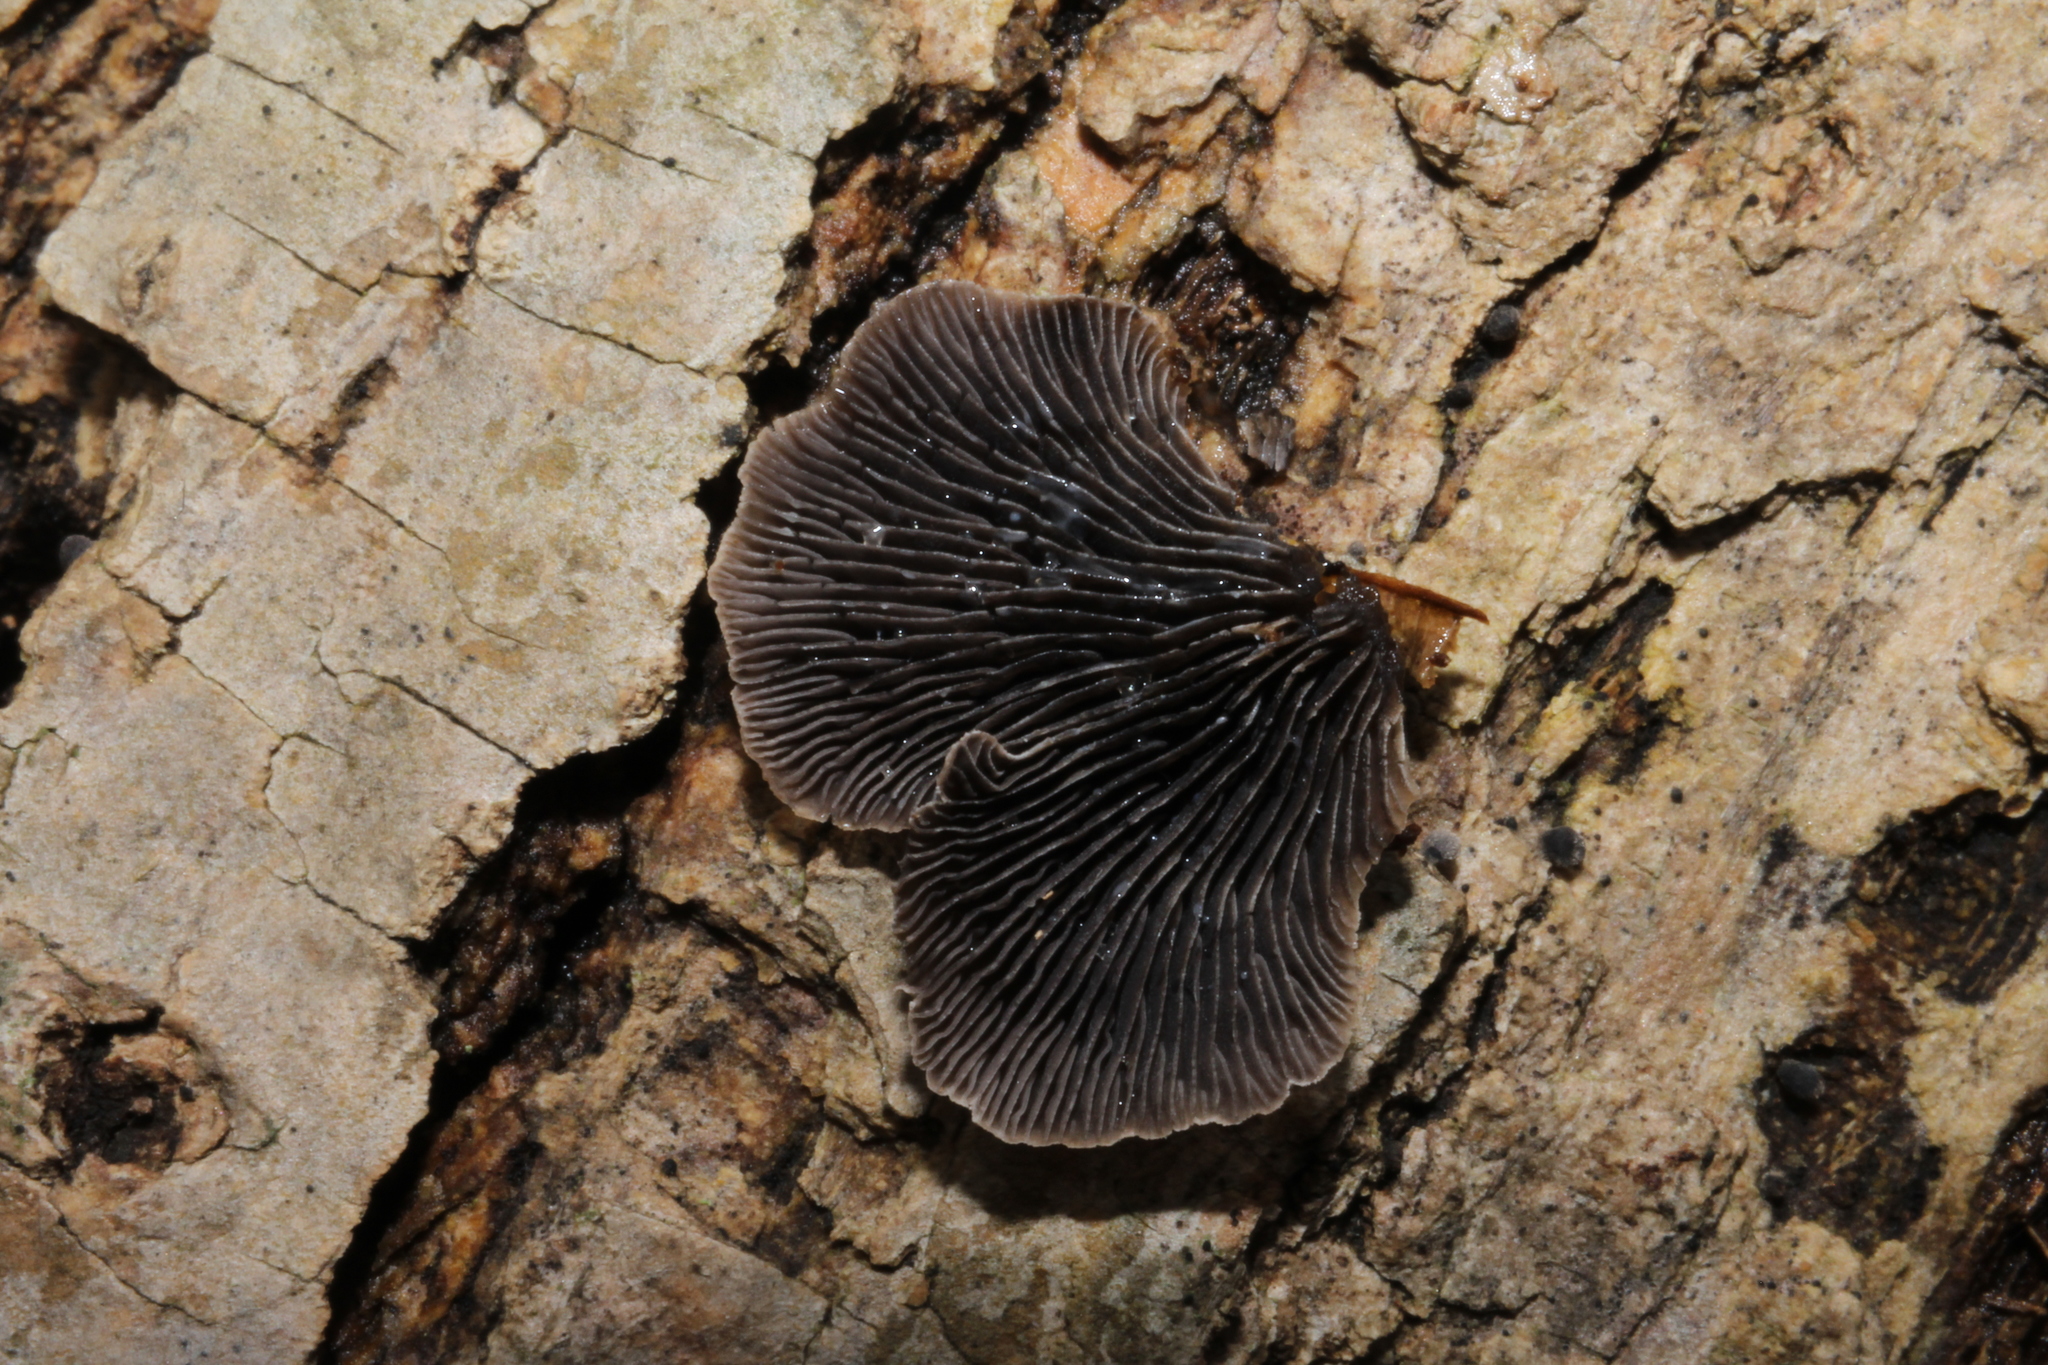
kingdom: Fungi
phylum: Basidiomycota
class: Agaricomycetes
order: Agaricales
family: Pleurotaceae
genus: Resupinatus
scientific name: Resupinatus applicatus
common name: Smoked oysterling
